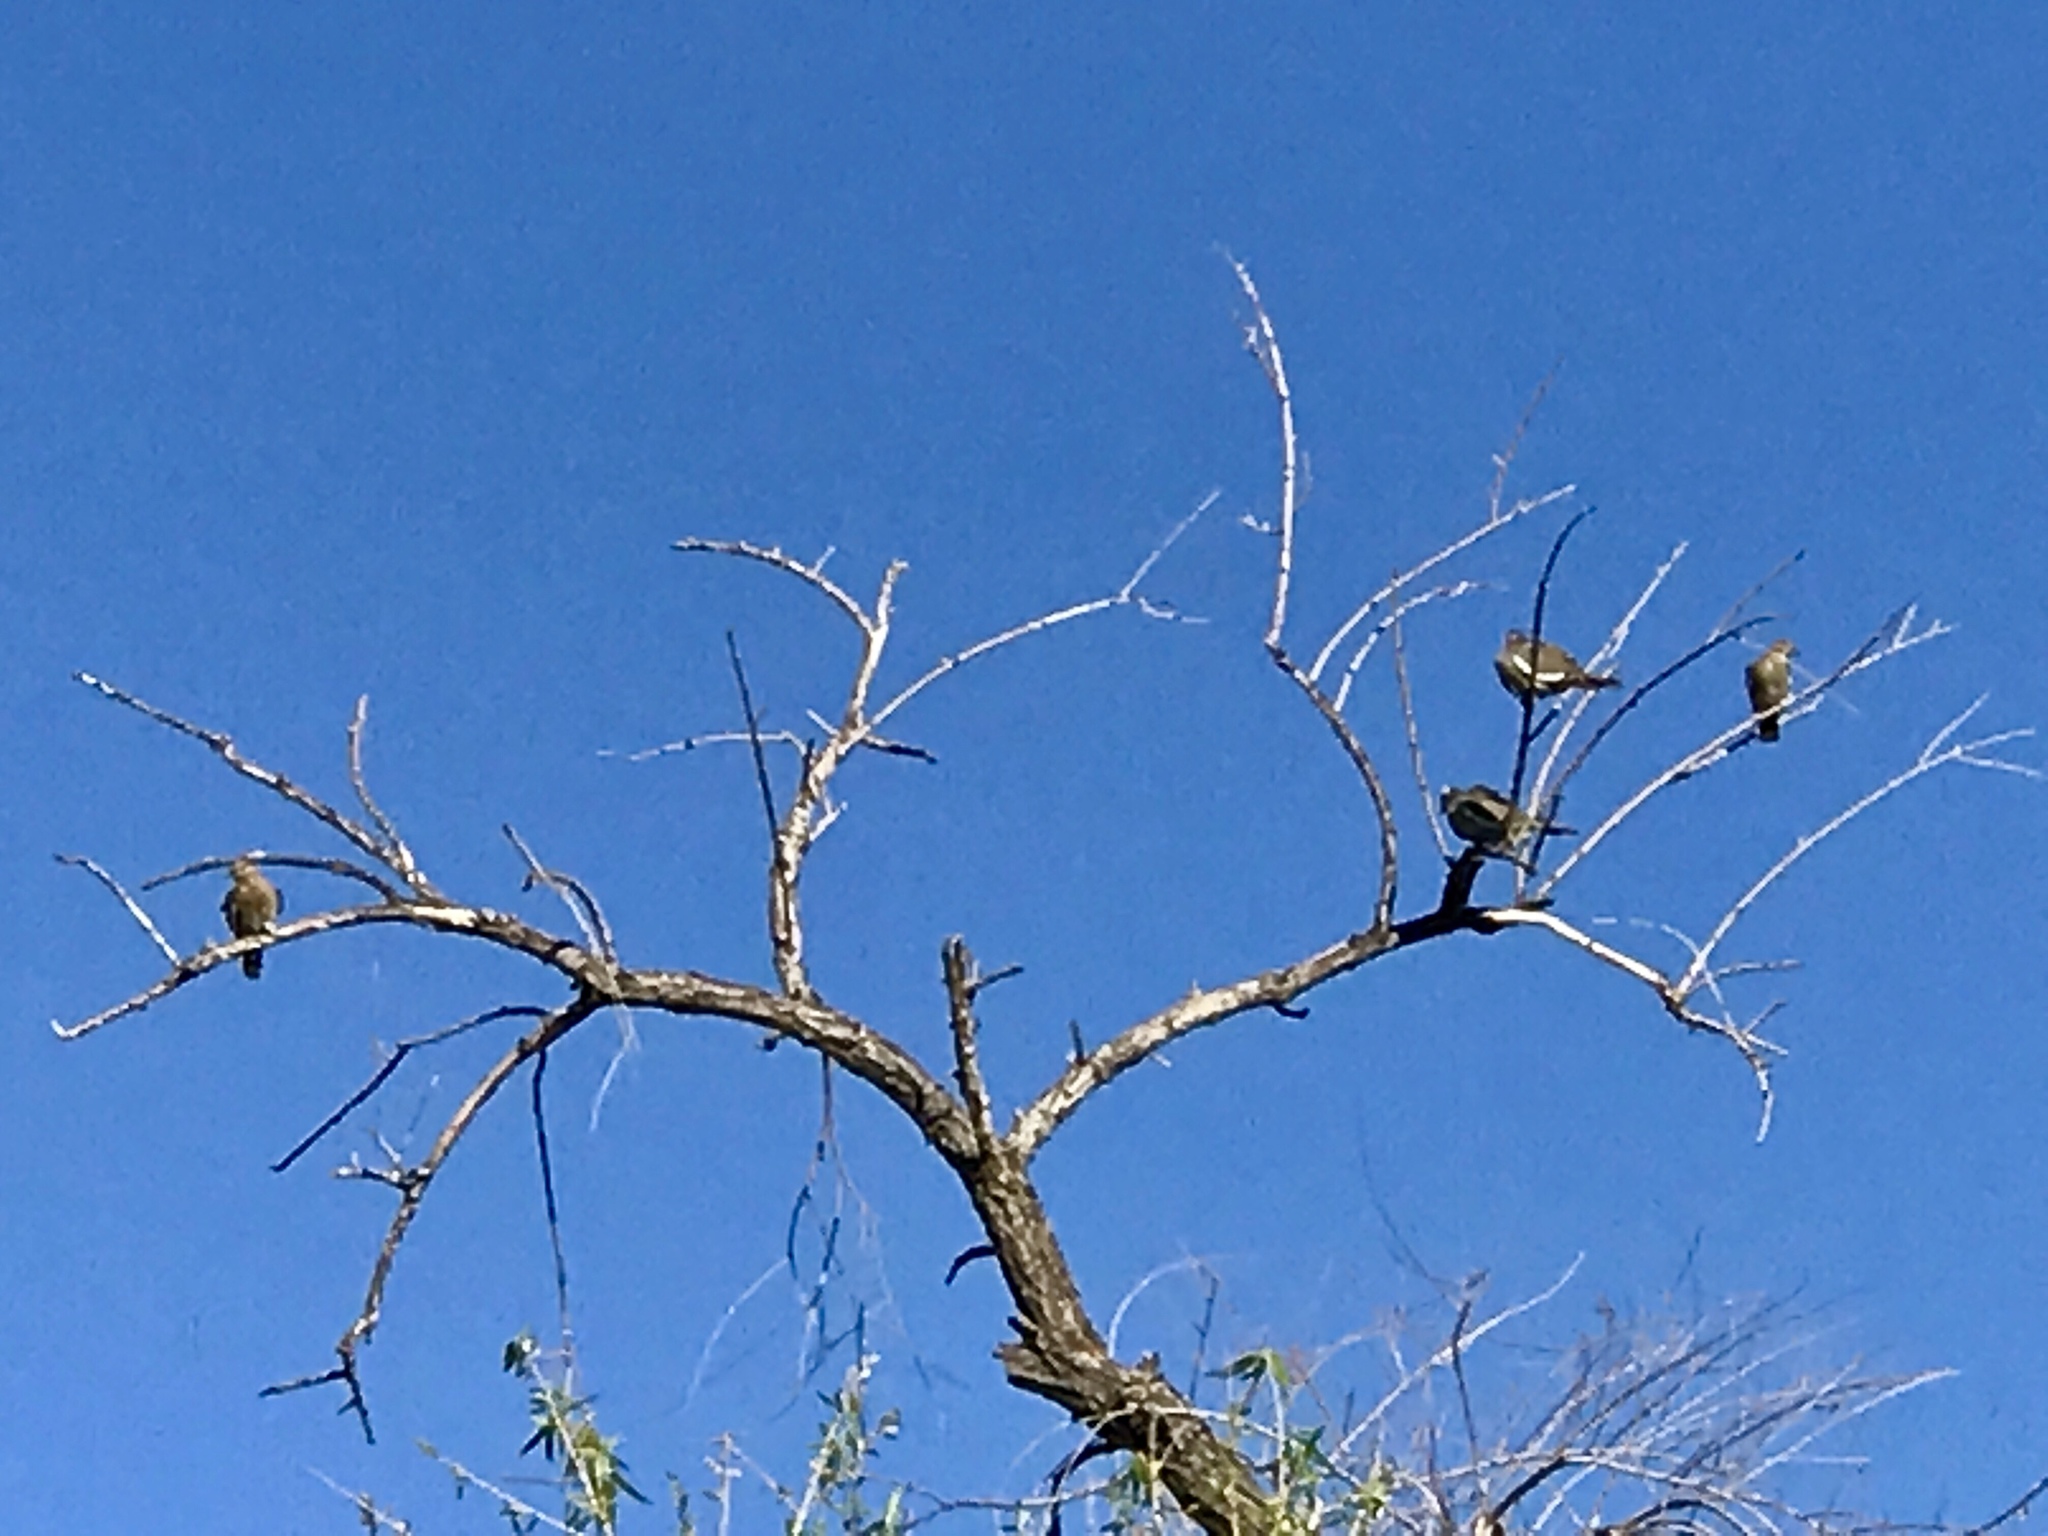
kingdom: Animalia
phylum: Chordata
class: Aves
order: Columbiformes
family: Columbidae
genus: Zenaida
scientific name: Zenaida asiatica
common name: White-winged dove
